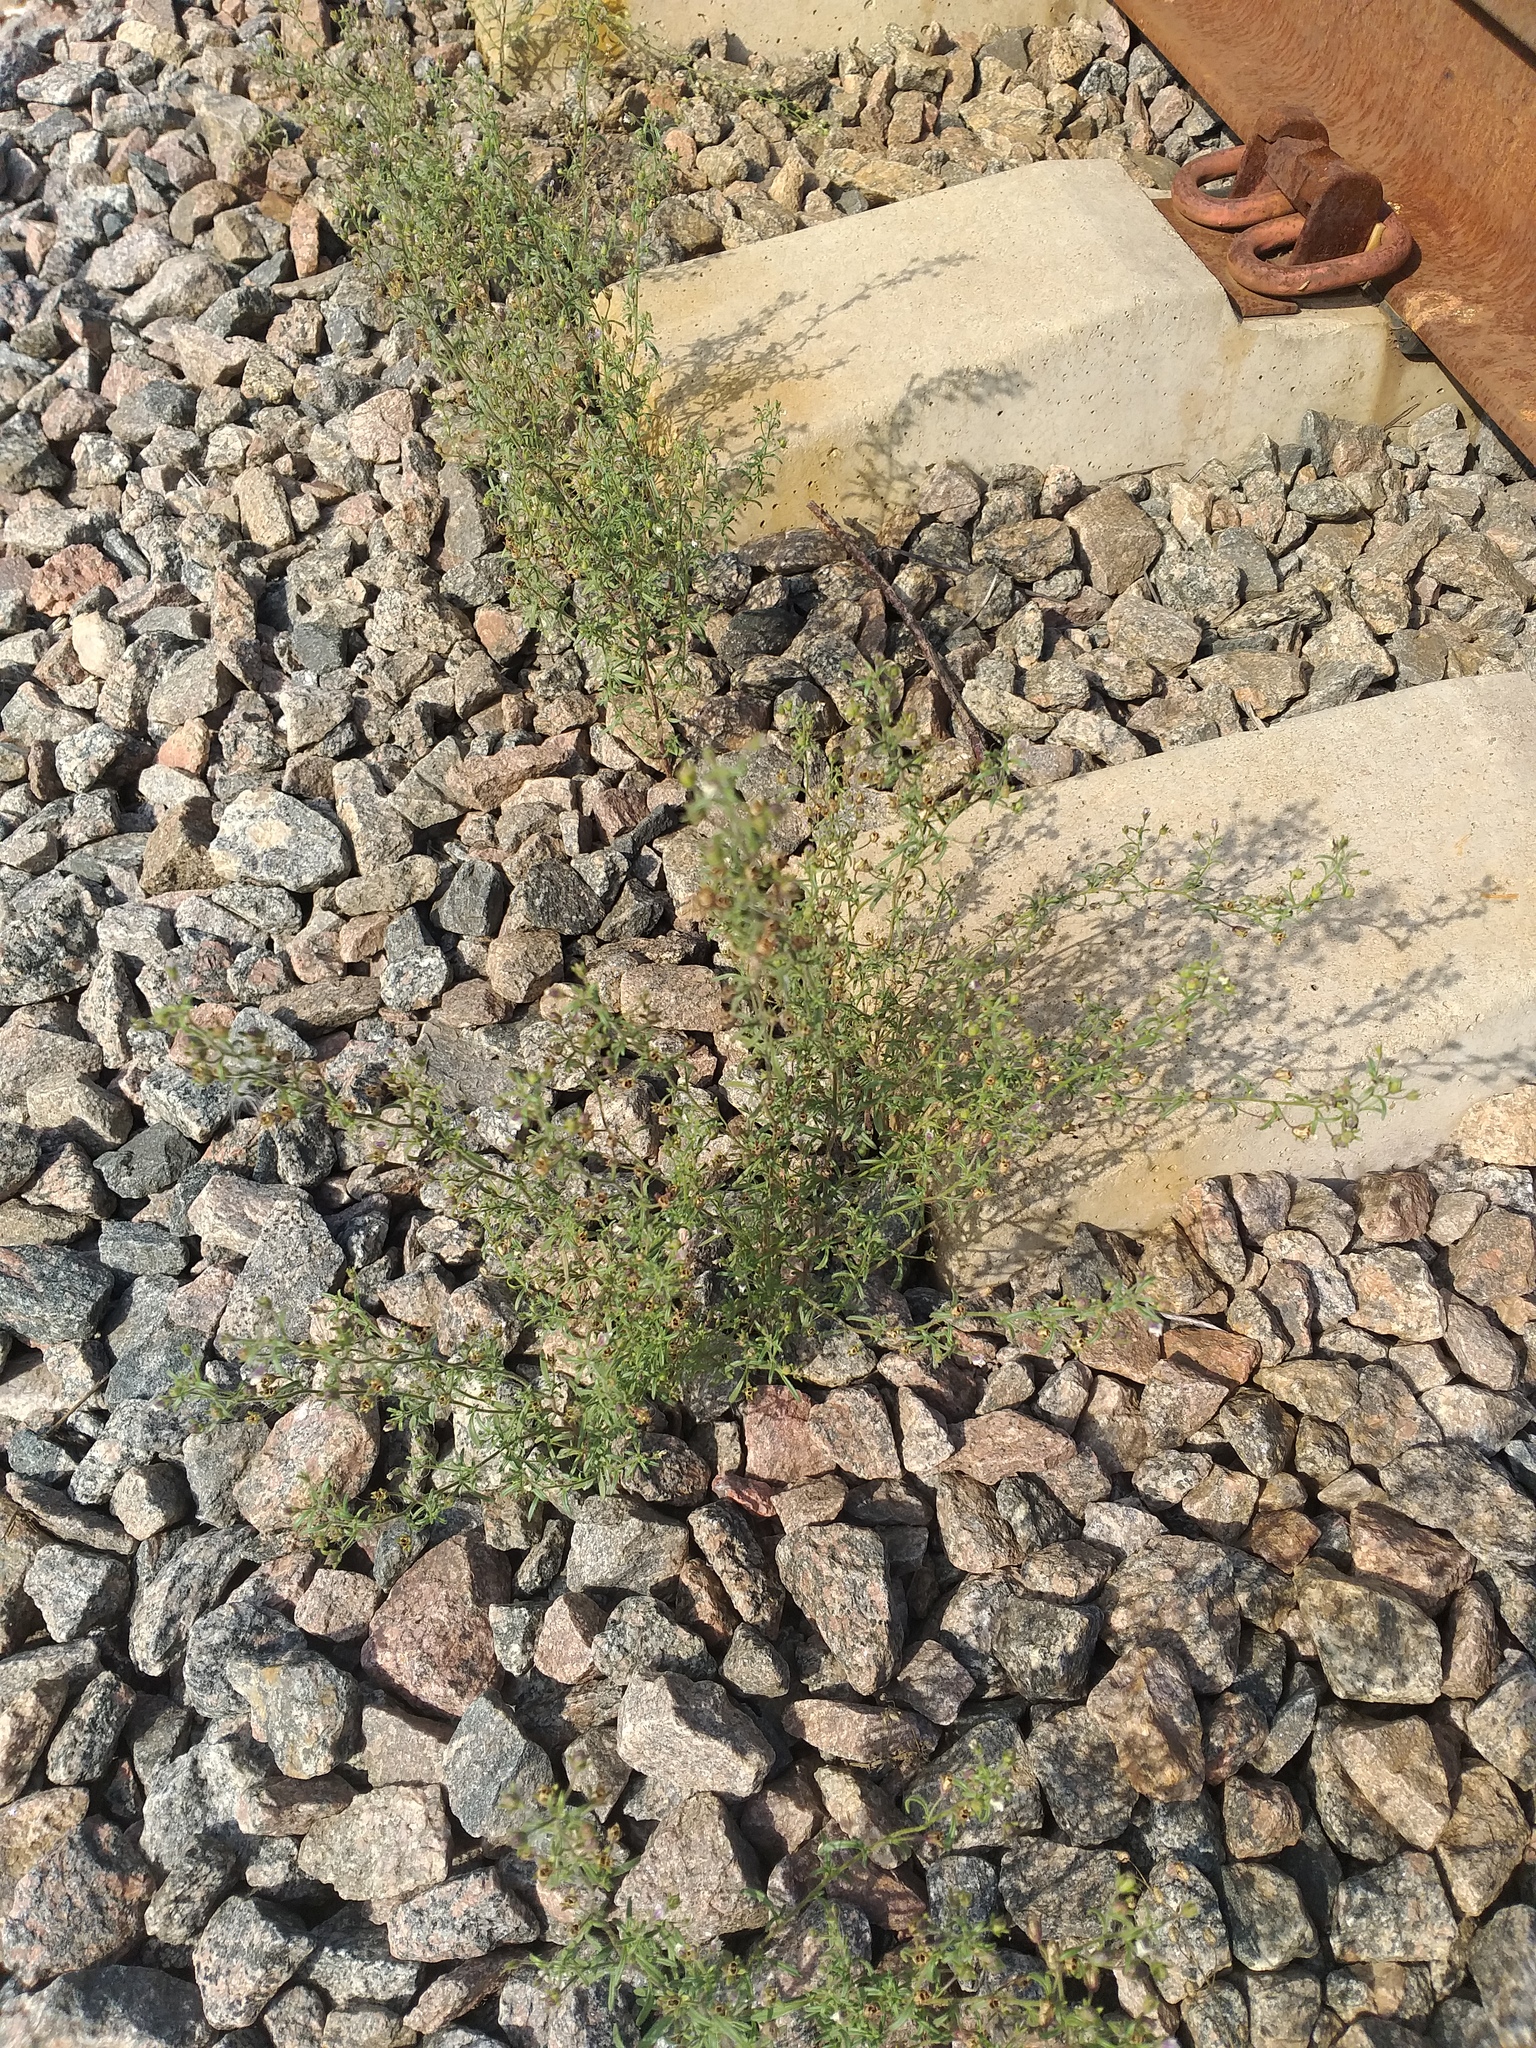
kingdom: Plantae
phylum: Tracheophyta
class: Magnoliopsida
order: Lamiales
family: Plantaginaceae
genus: Chaenorhinum
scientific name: Chaenorhinum minus
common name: Dwarf snapdragon
